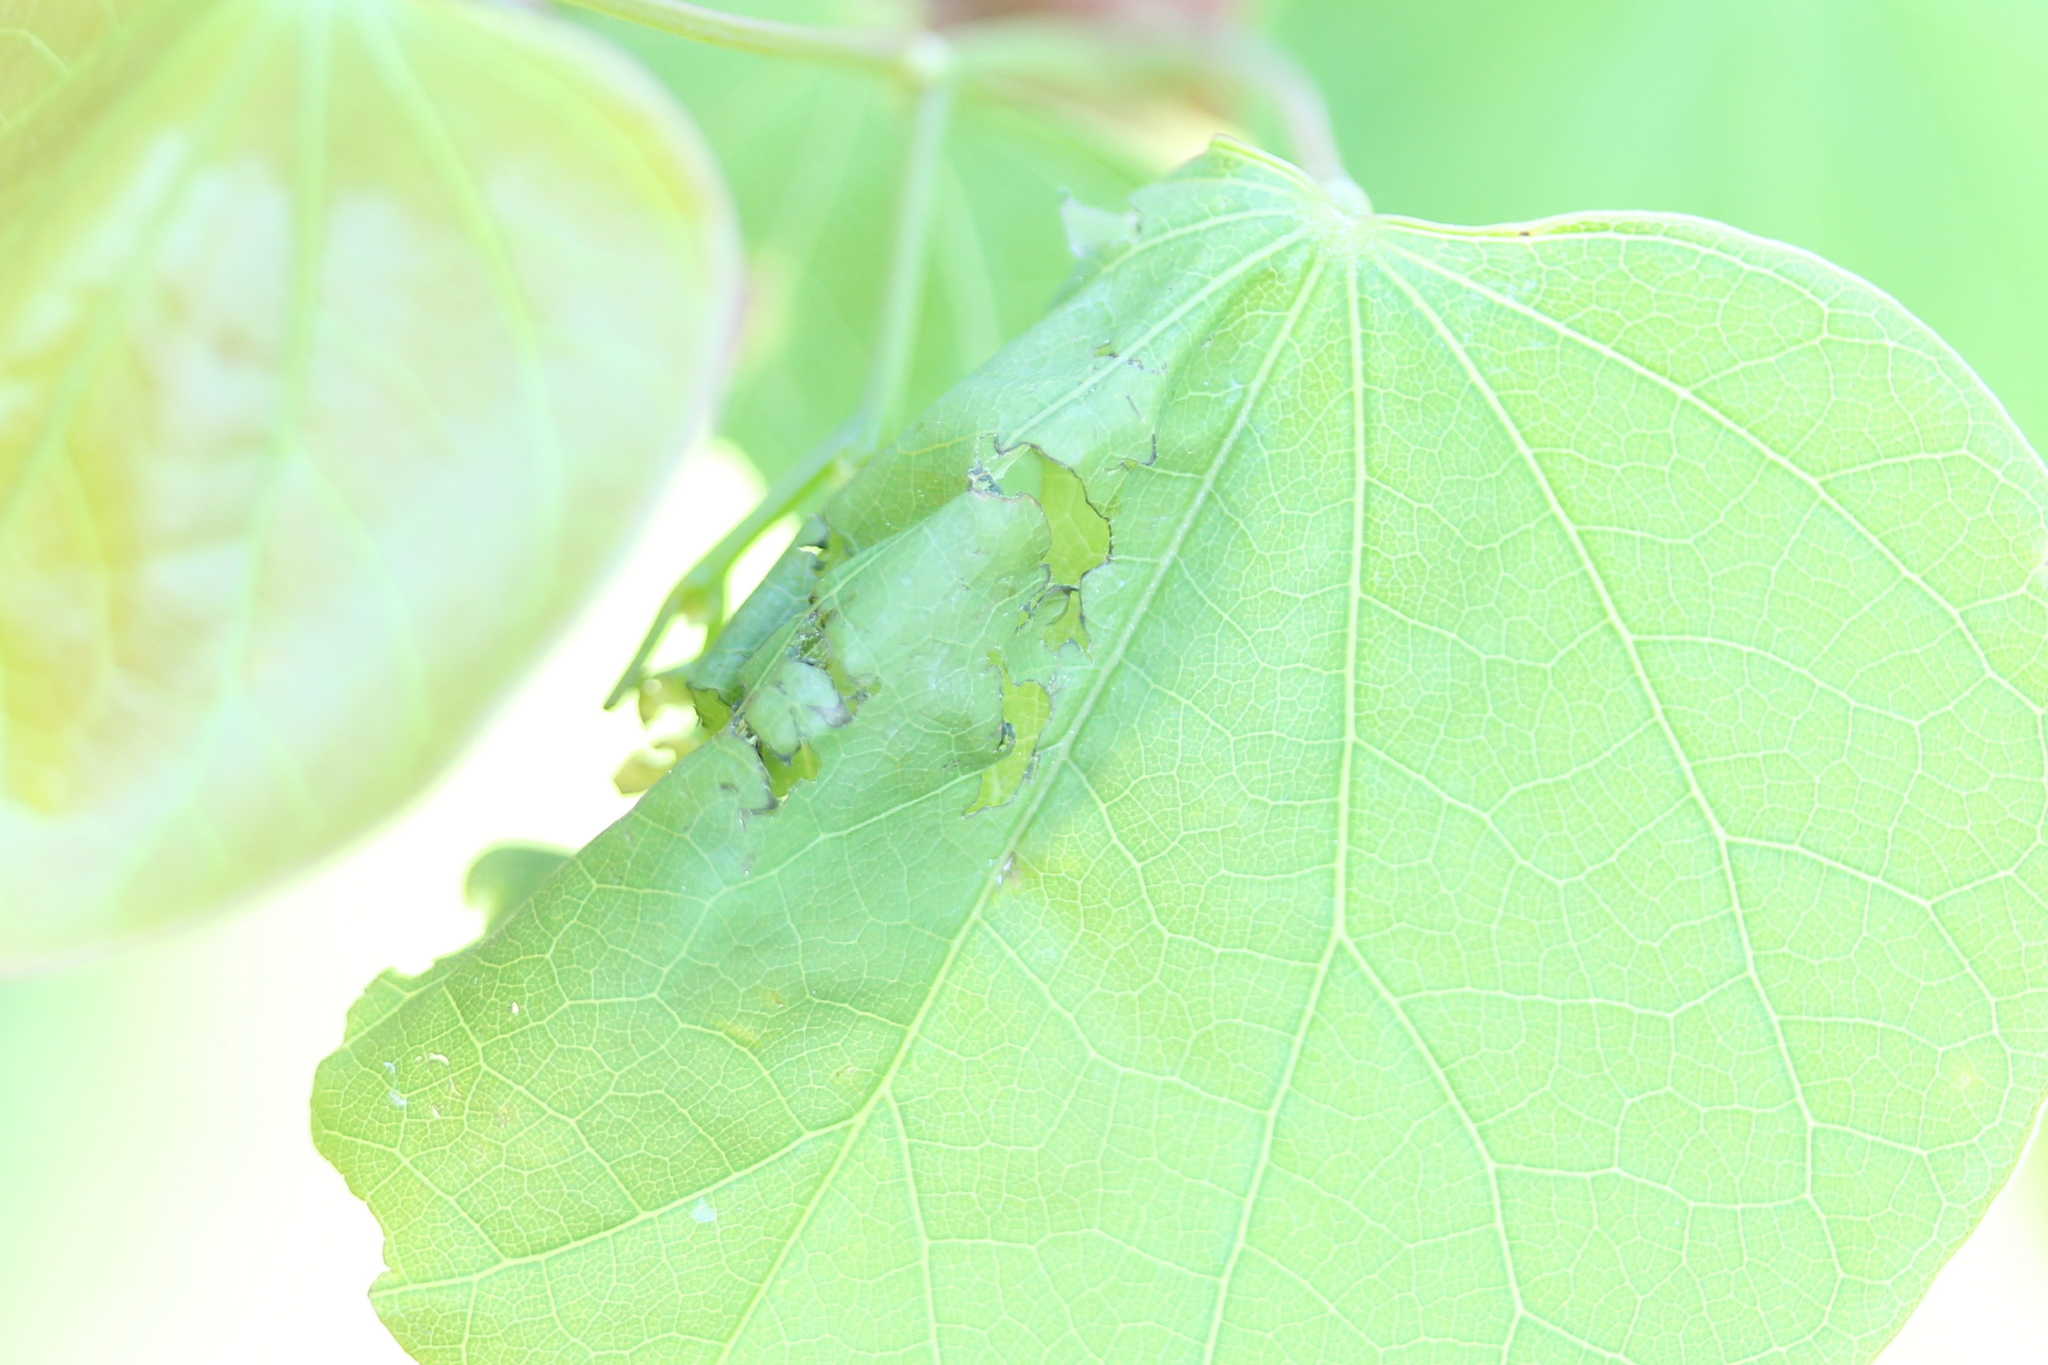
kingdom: Animalia
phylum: Arthropoda
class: Insecta
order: Lepidoptera
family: Gelechiidae
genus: Fascista
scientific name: Fascista cercerisella
